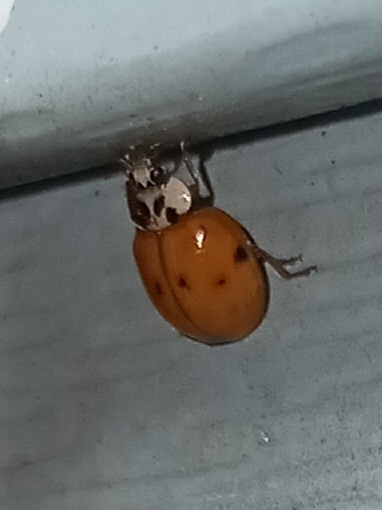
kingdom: Animalia
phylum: Arthropoda
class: Insecta
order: Coleoptera
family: Coccinellidae
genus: Harmonia
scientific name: Harmonia axyridis
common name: Harlequin ladybird
